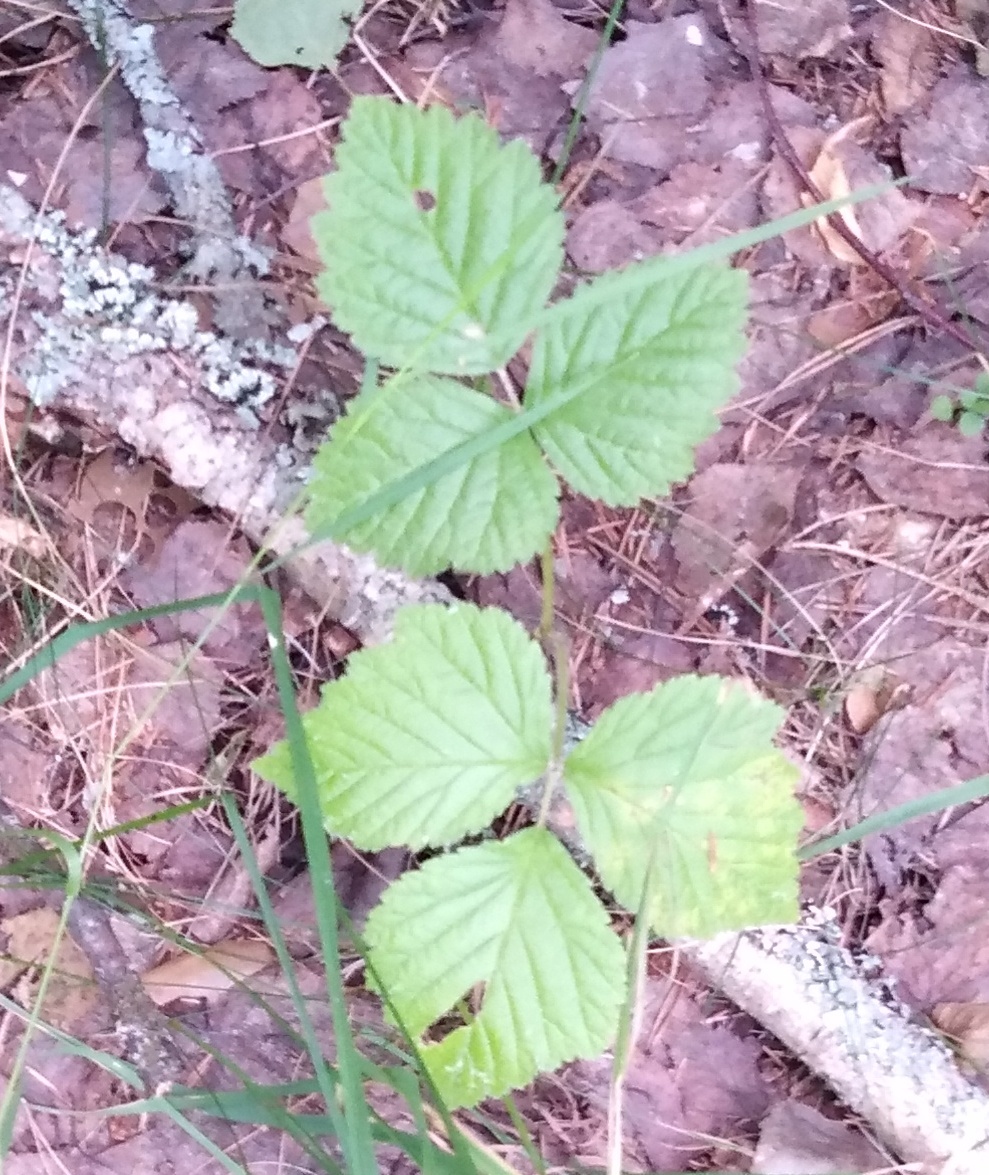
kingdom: Plantae
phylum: Tracheophyta
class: Magnoliopsida
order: Rosales
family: Rosaceae
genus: Rubus
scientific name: Rubus saxatilis
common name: Stone bramble
